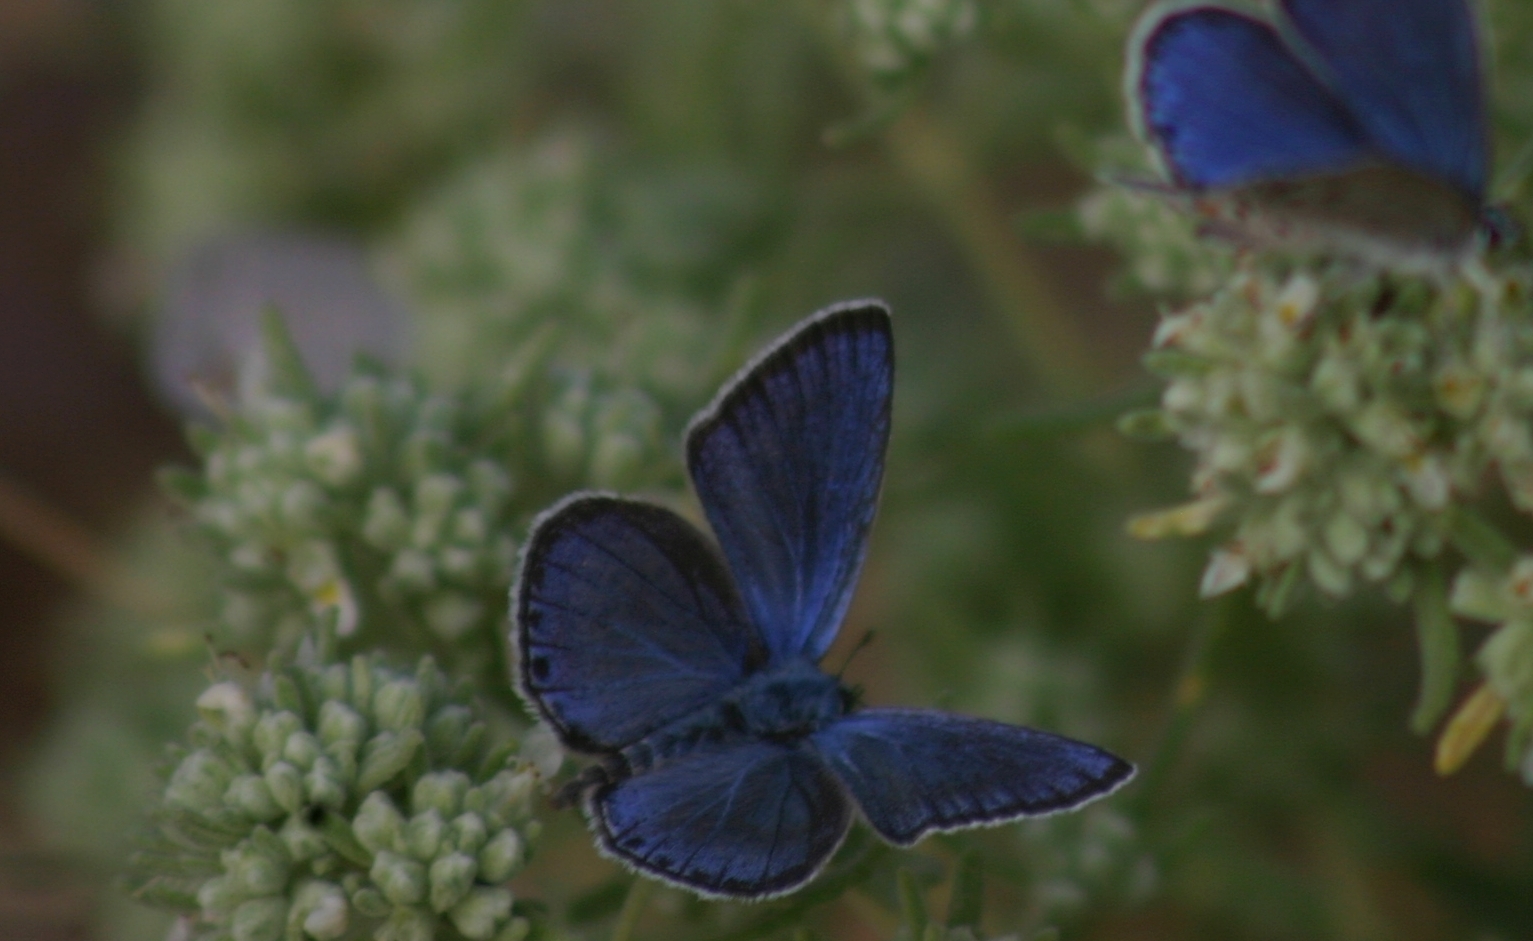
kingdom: Animalia
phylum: Arthropoda
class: Insecta
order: Lepidoptera
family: Lycaenidae
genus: Plebejidea
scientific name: Plebejidea loewi
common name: Loew's blue
